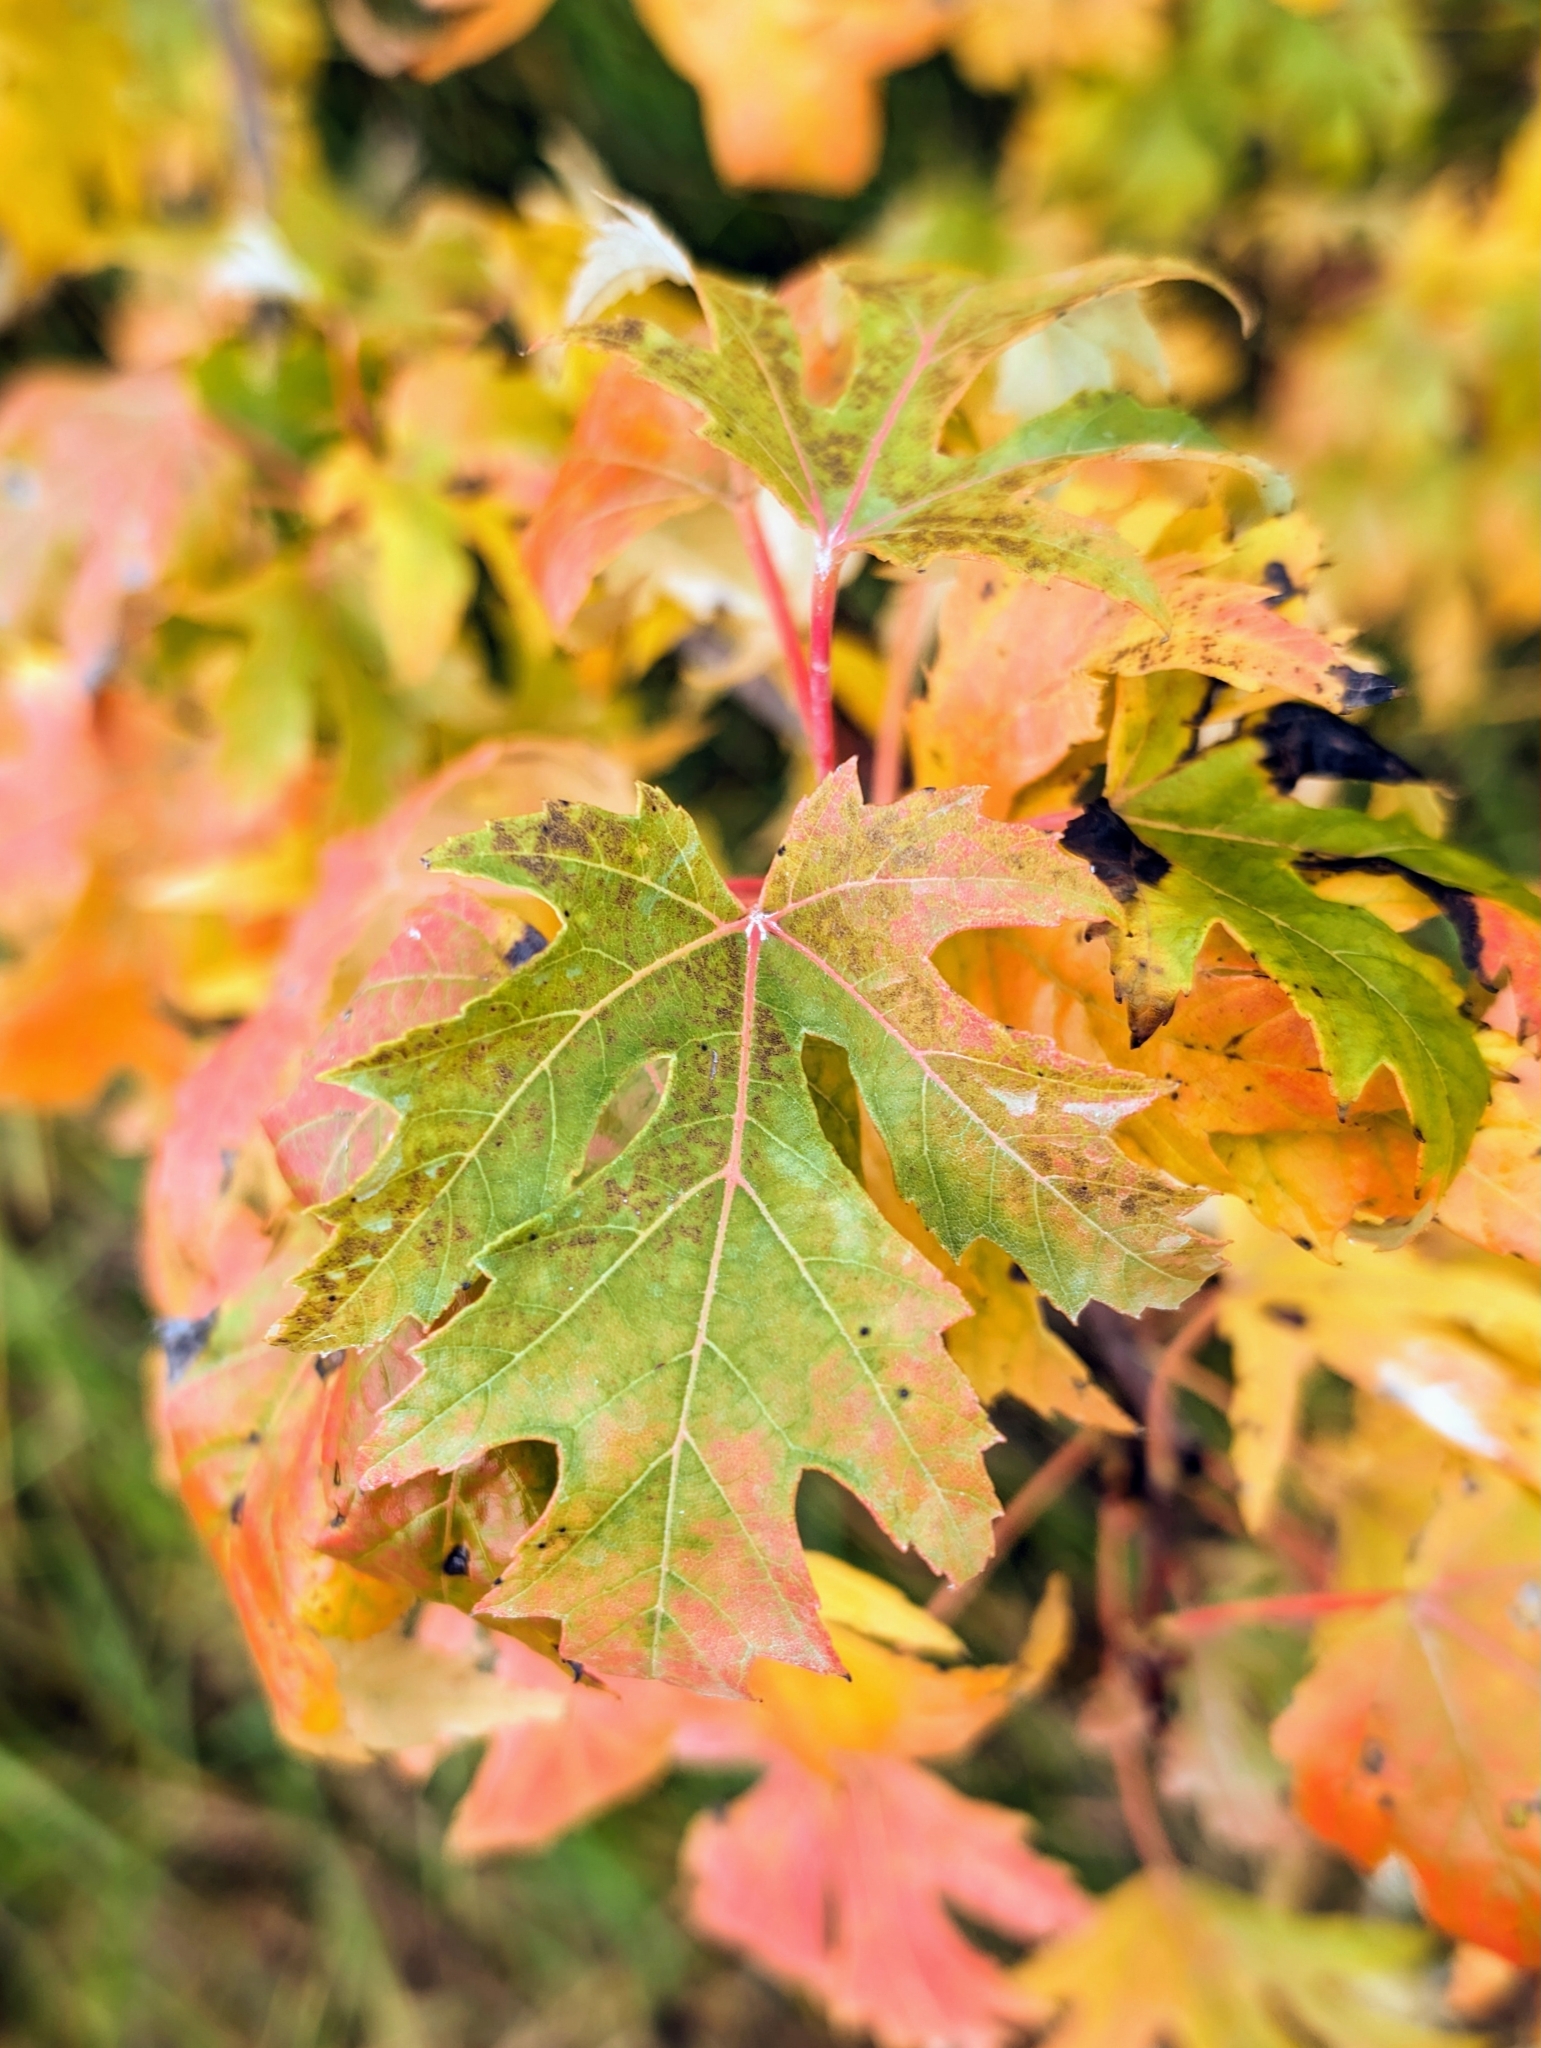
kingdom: Plantae
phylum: Tracheophyta
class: Magnoliopsida
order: Sapindales
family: Sapindaceae
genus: Acer
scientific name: Acer saccharinum
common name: Silver maple
